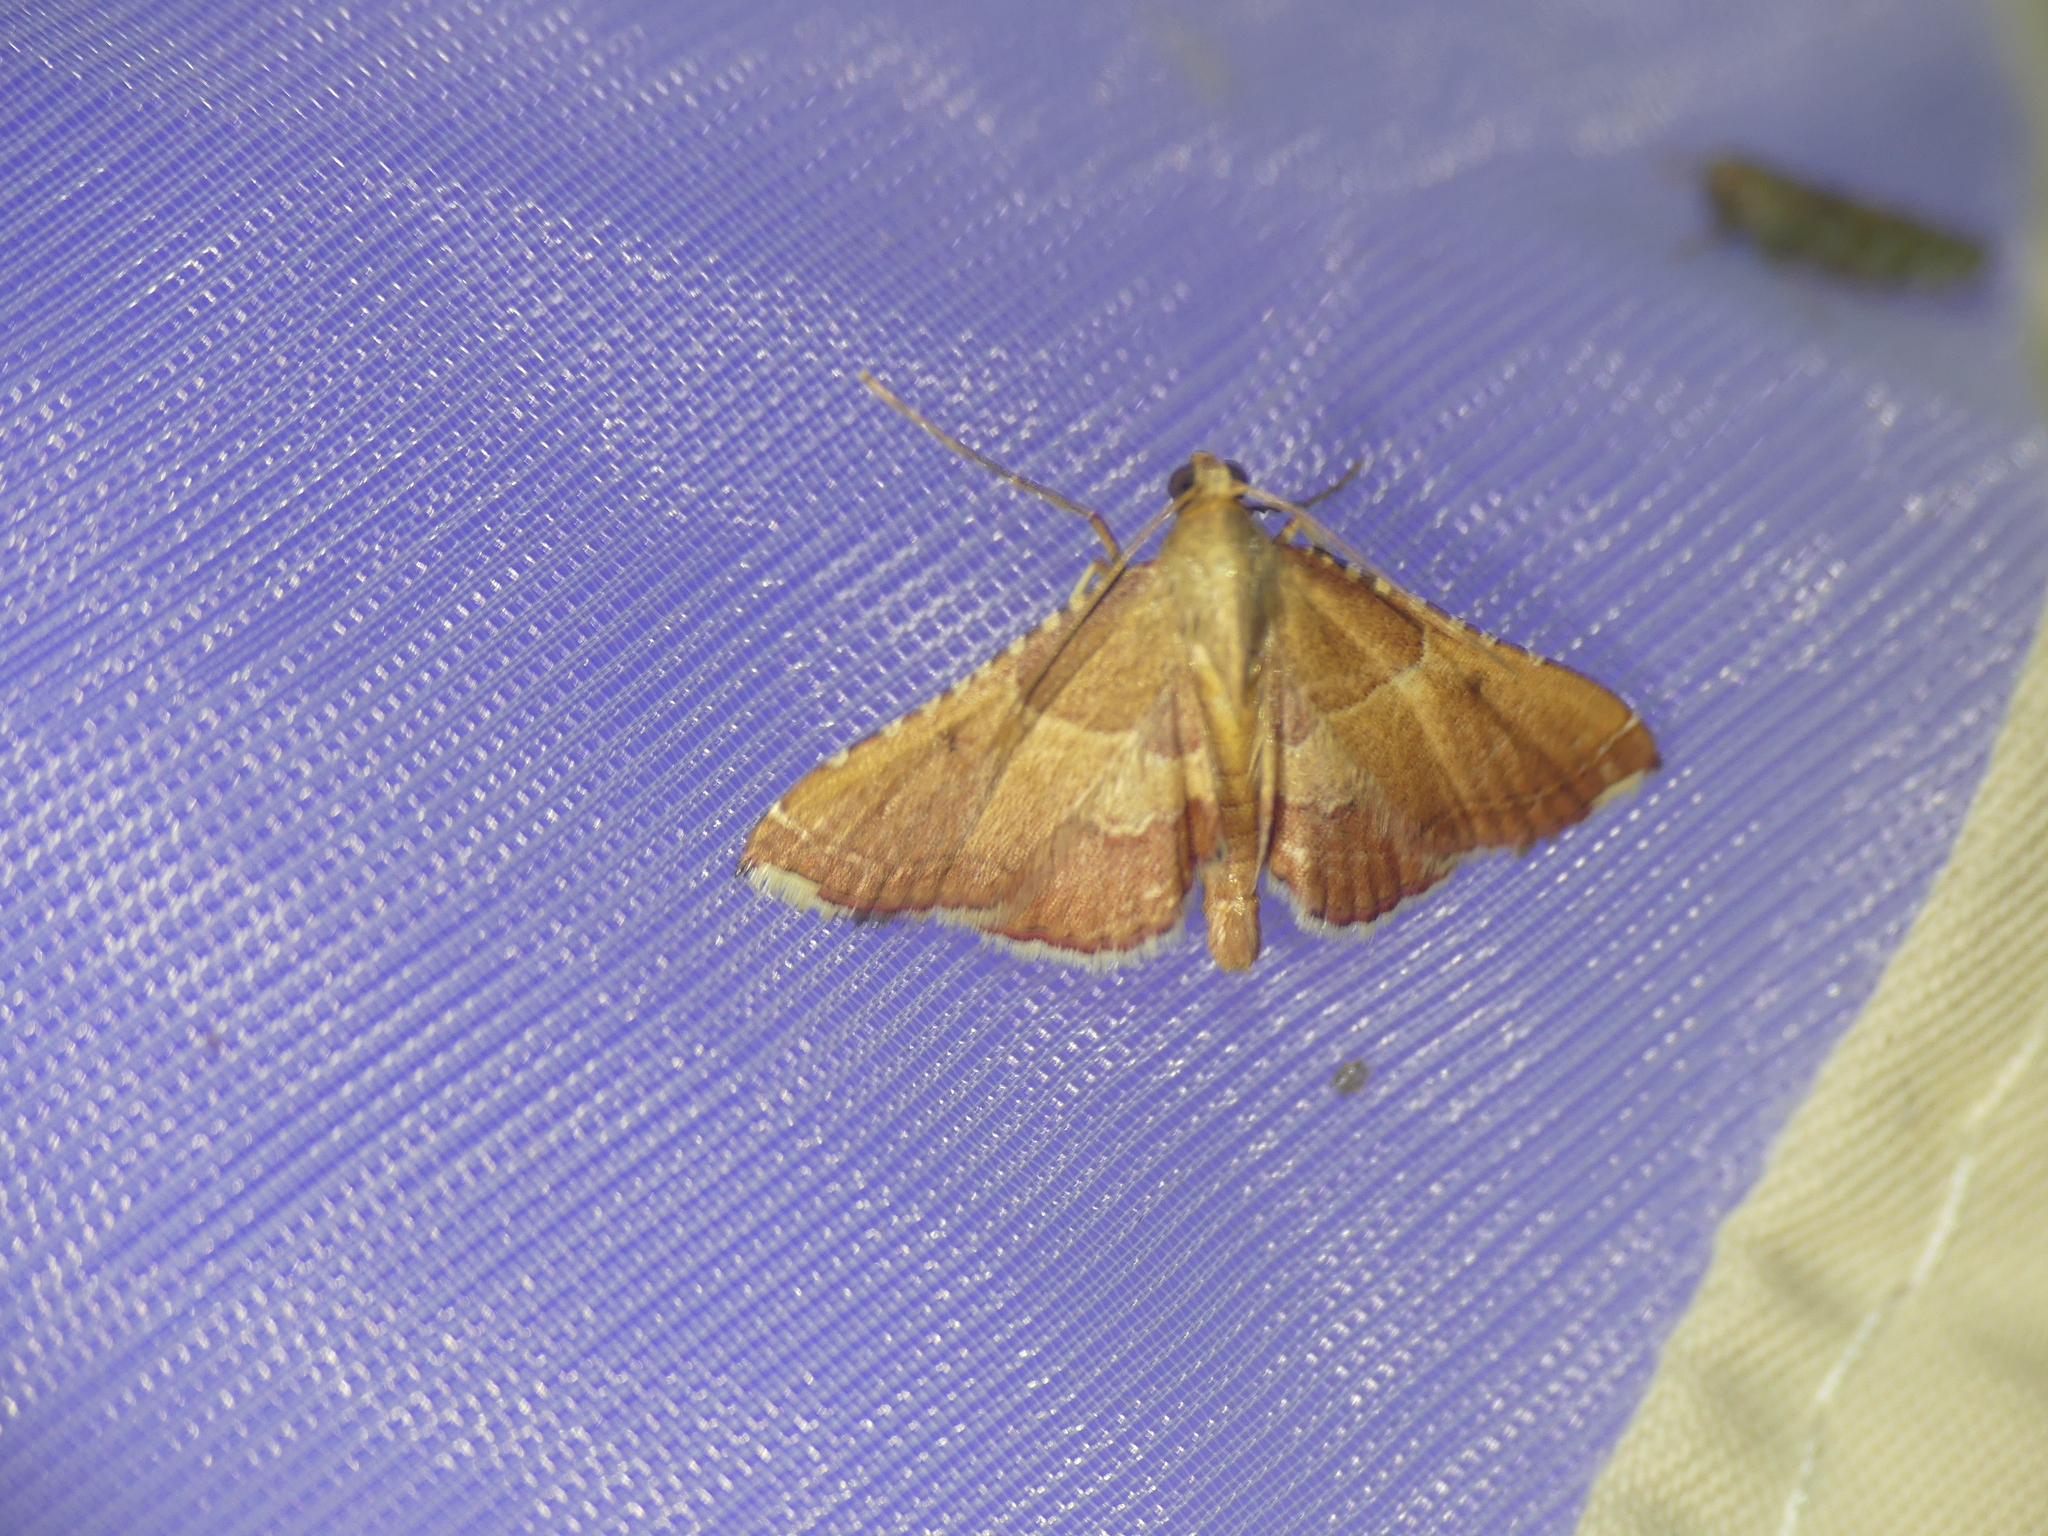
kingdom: Animalia
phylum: Arthropoda
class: Insecta
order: Lepidoptera
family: Pyralidae
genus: Endotricha
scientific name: Endotricha flammealis
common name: Rosy tabby
